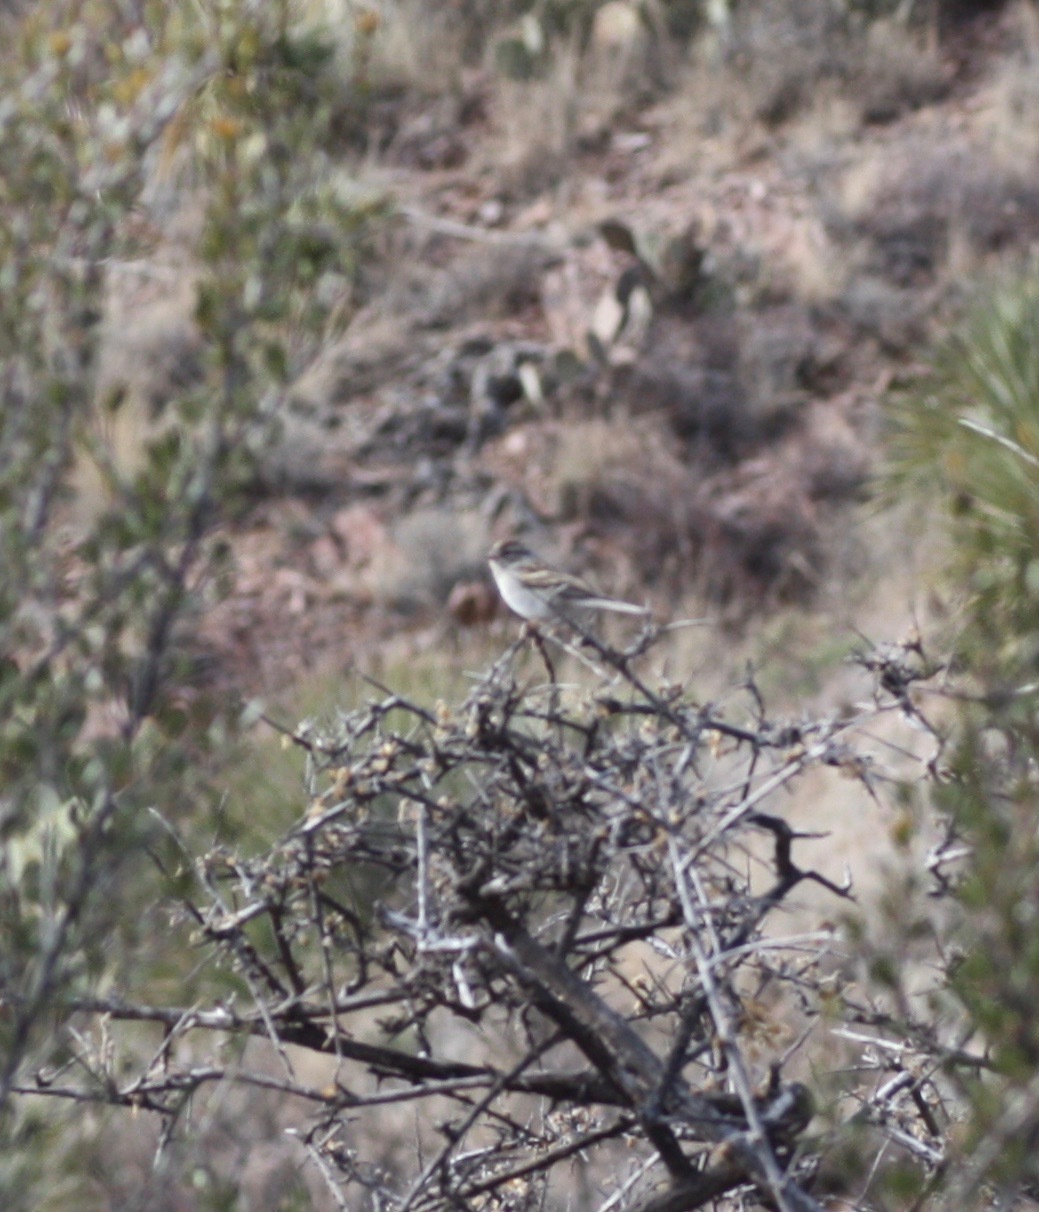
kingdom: Animalia
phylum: Chordata
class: Aves
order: Passeriformes
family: Passerellidae
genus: Spizella
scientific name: Spizella passerina
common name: Chipping sparrow
